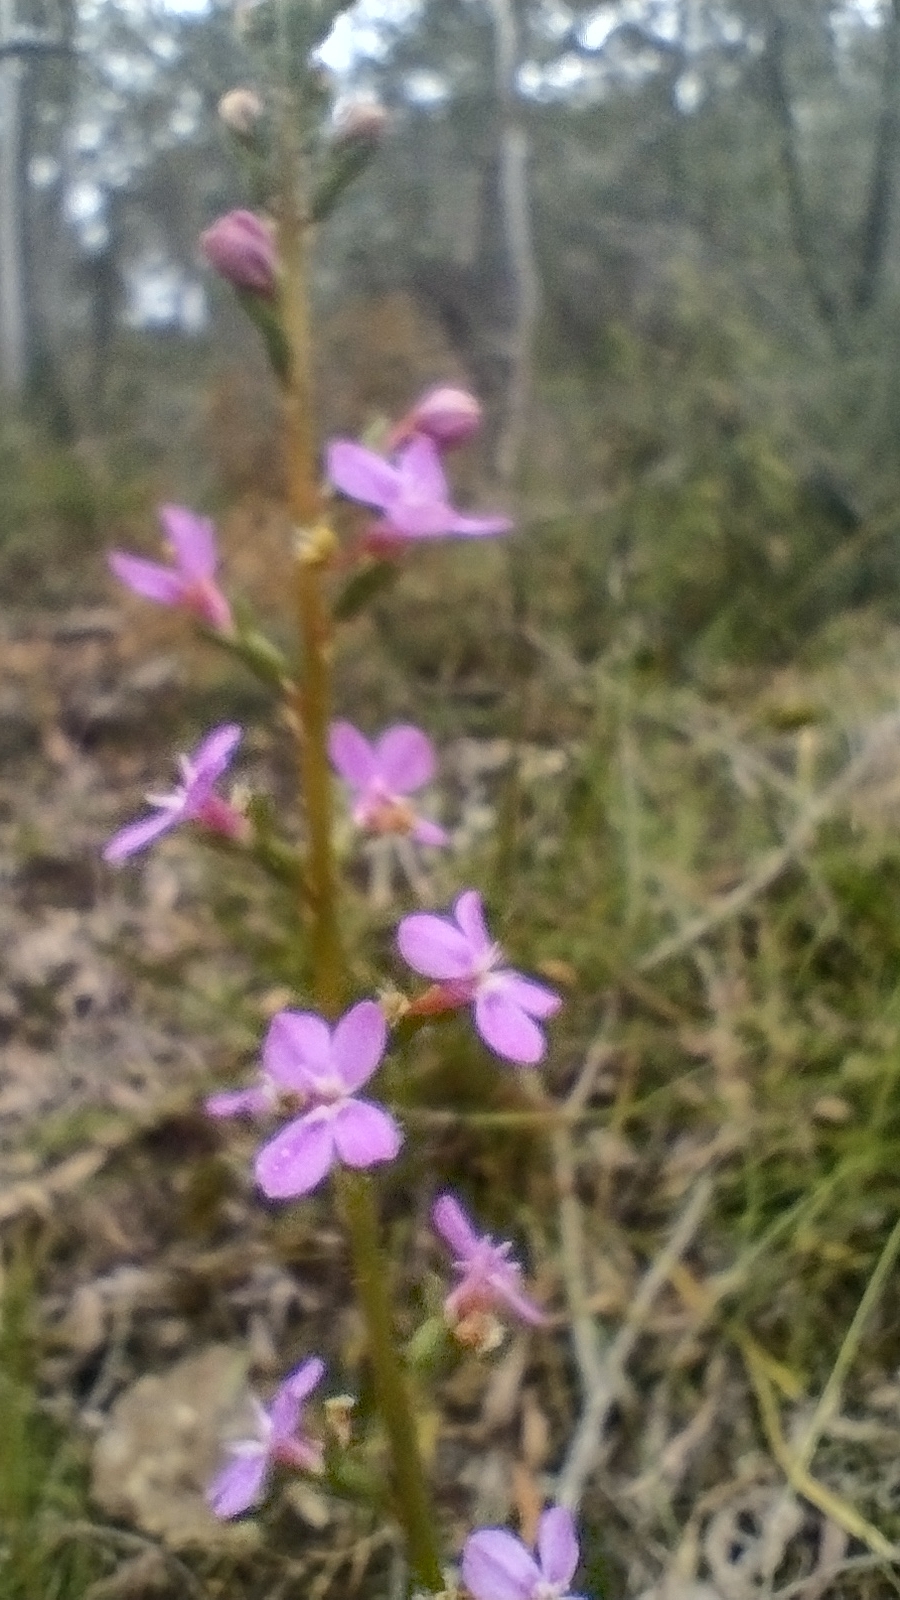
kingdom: Plantae
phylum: Tracheophyta
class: Magnoliopsida
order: Asterales
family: Stylidiaceae
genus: Stylidium
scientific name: Stylidium armeria
